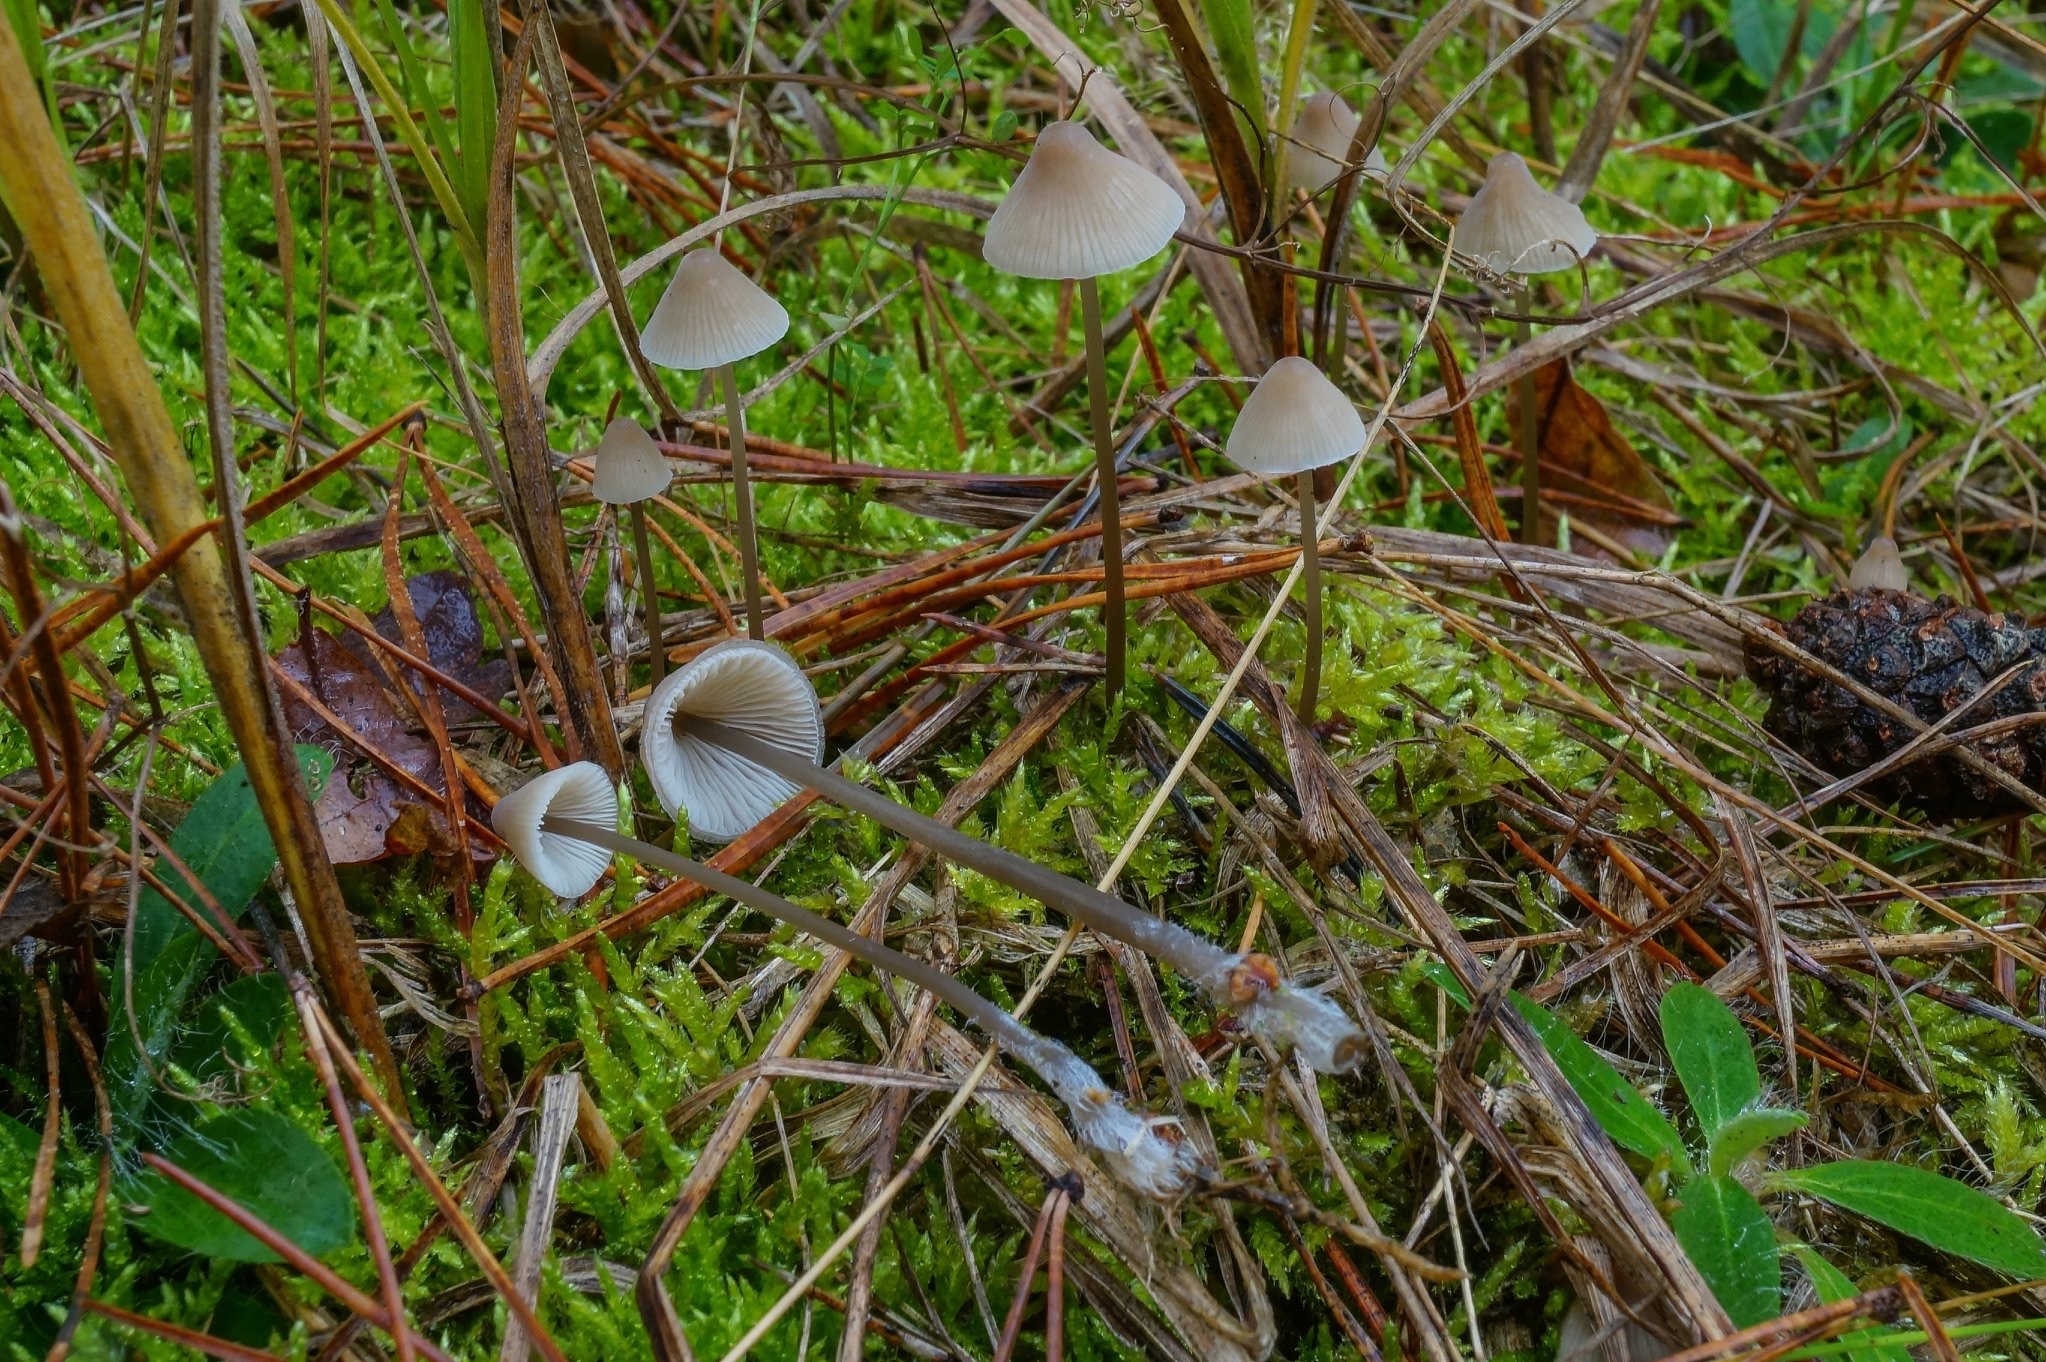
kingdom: Fungi
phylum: Basidiomycota
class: Agaricomycetes
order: Agaricales
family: Mycenaceae
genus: Mycena
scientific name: Mycena filopes
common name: Iodine bonnet
